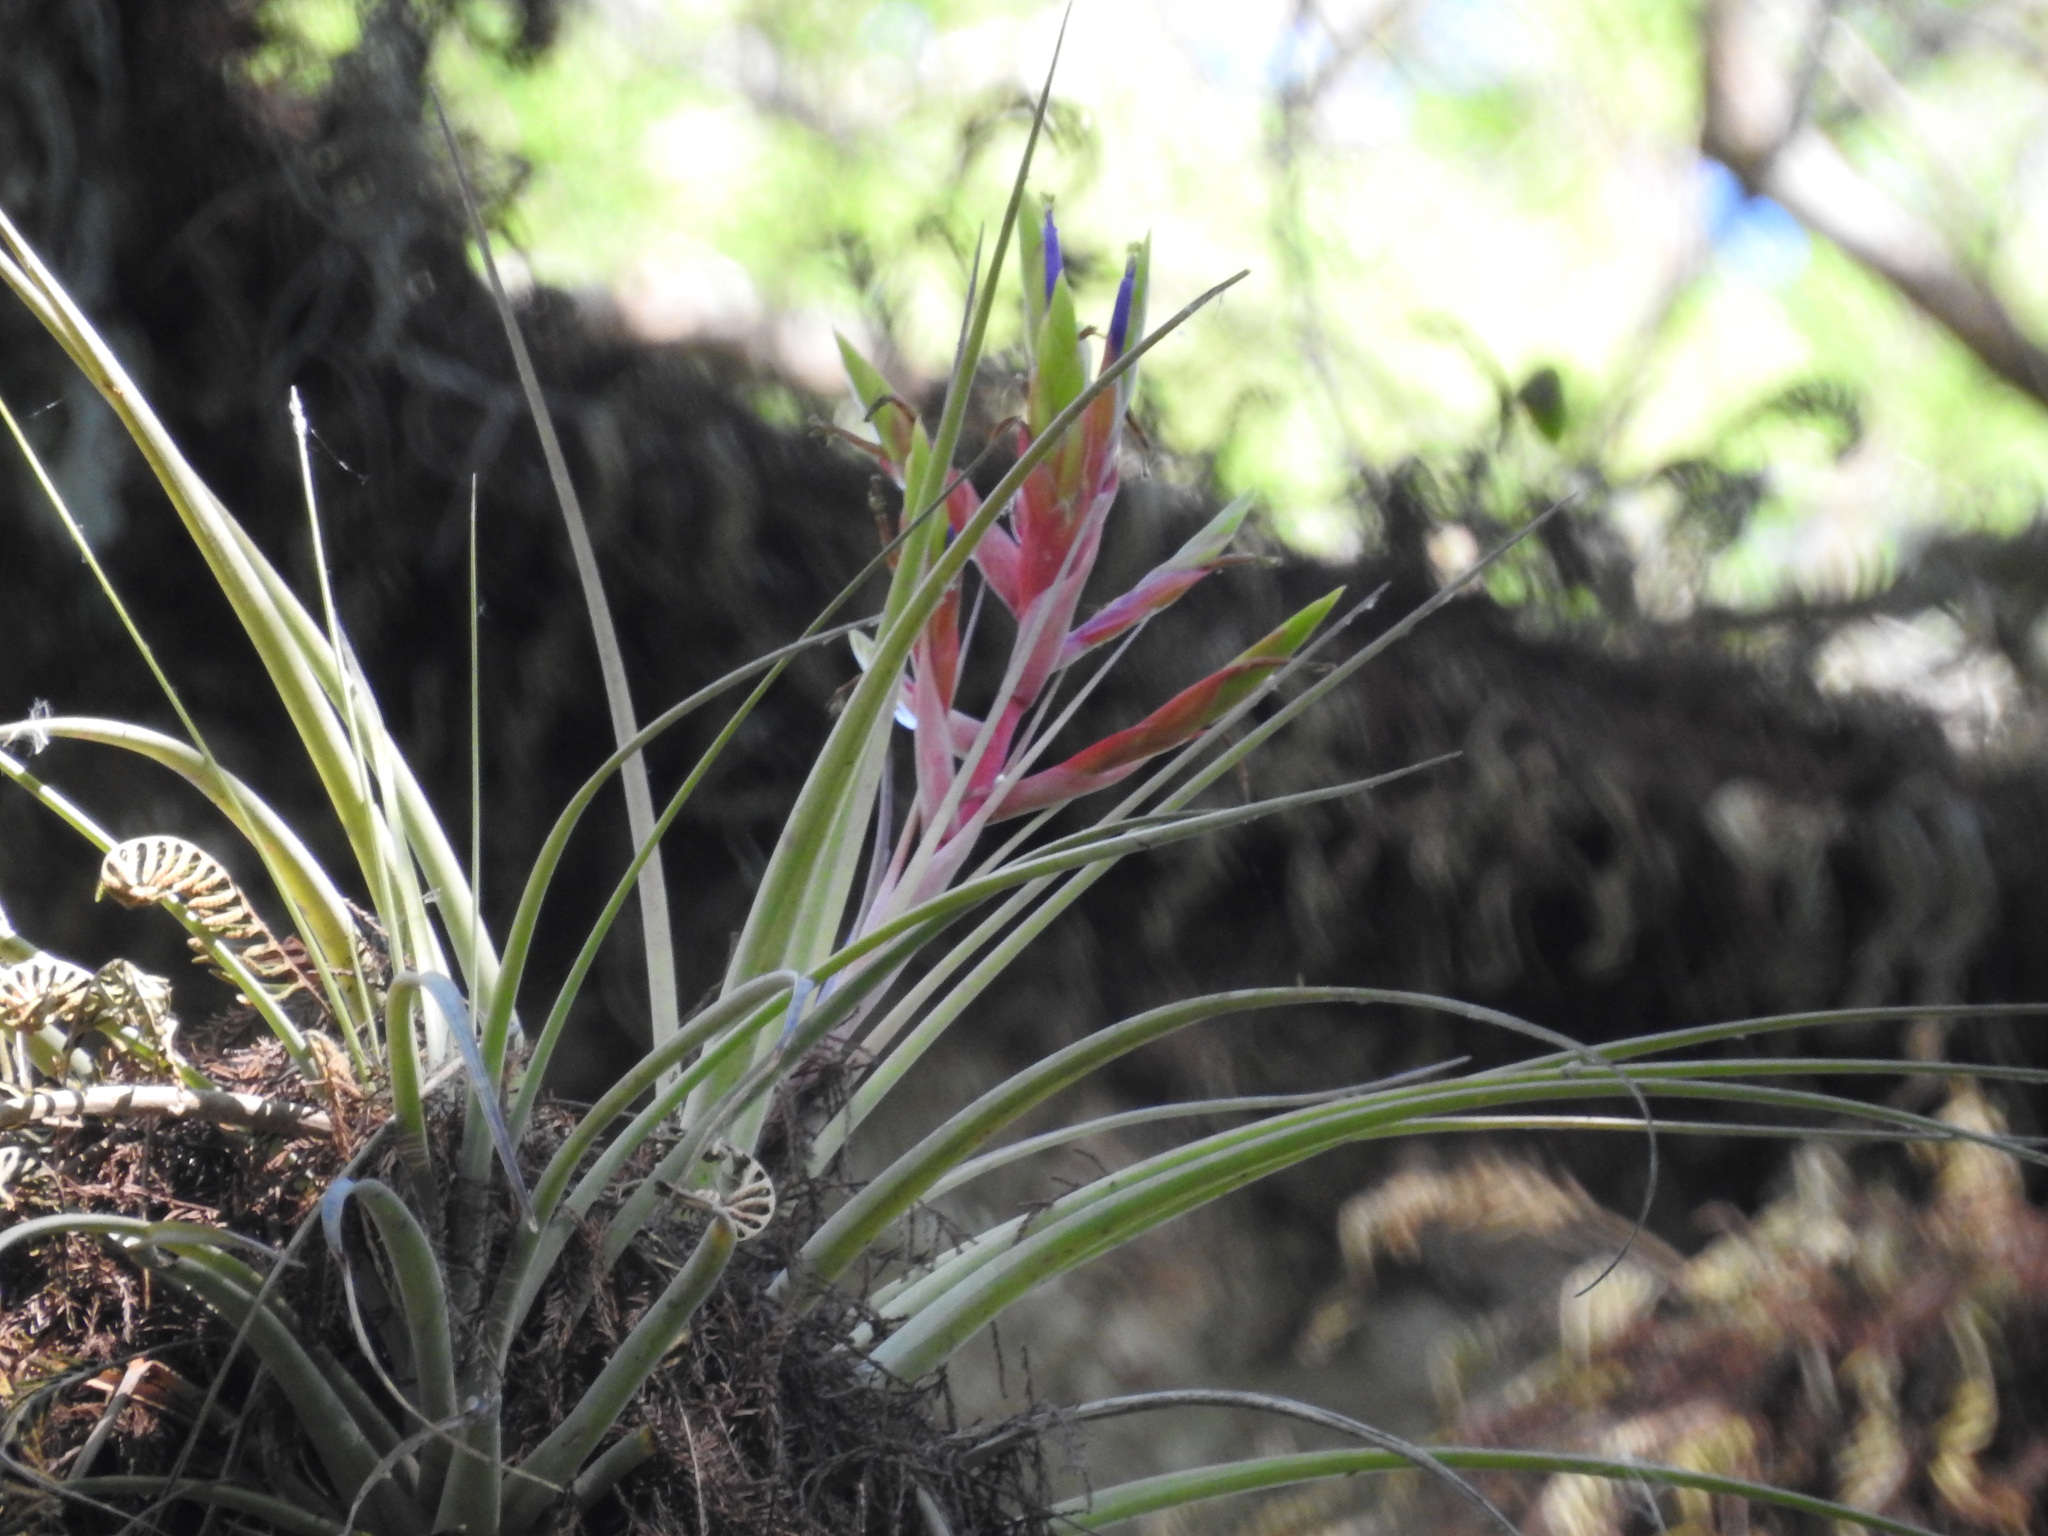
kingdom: Plantae
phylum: Tracheophyta
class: Liliopsida
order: Poales
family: Bromeliaceae
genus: Tillandsia
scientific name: Tillandsia fasciculata
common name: Giant airplant
